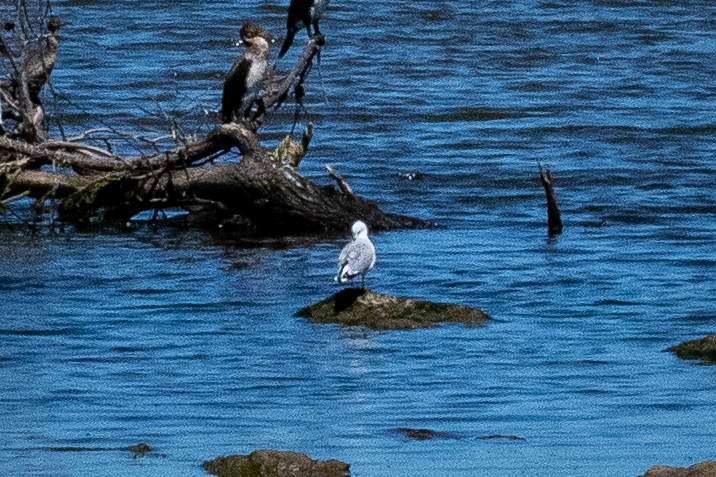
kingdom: Animalia
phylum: Chordata
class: Aves
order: Charadriiformes
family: Laridae
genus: Chroicocephalus
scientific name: Chroicocephalus hartlaubii
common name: Hartlaub's gull
